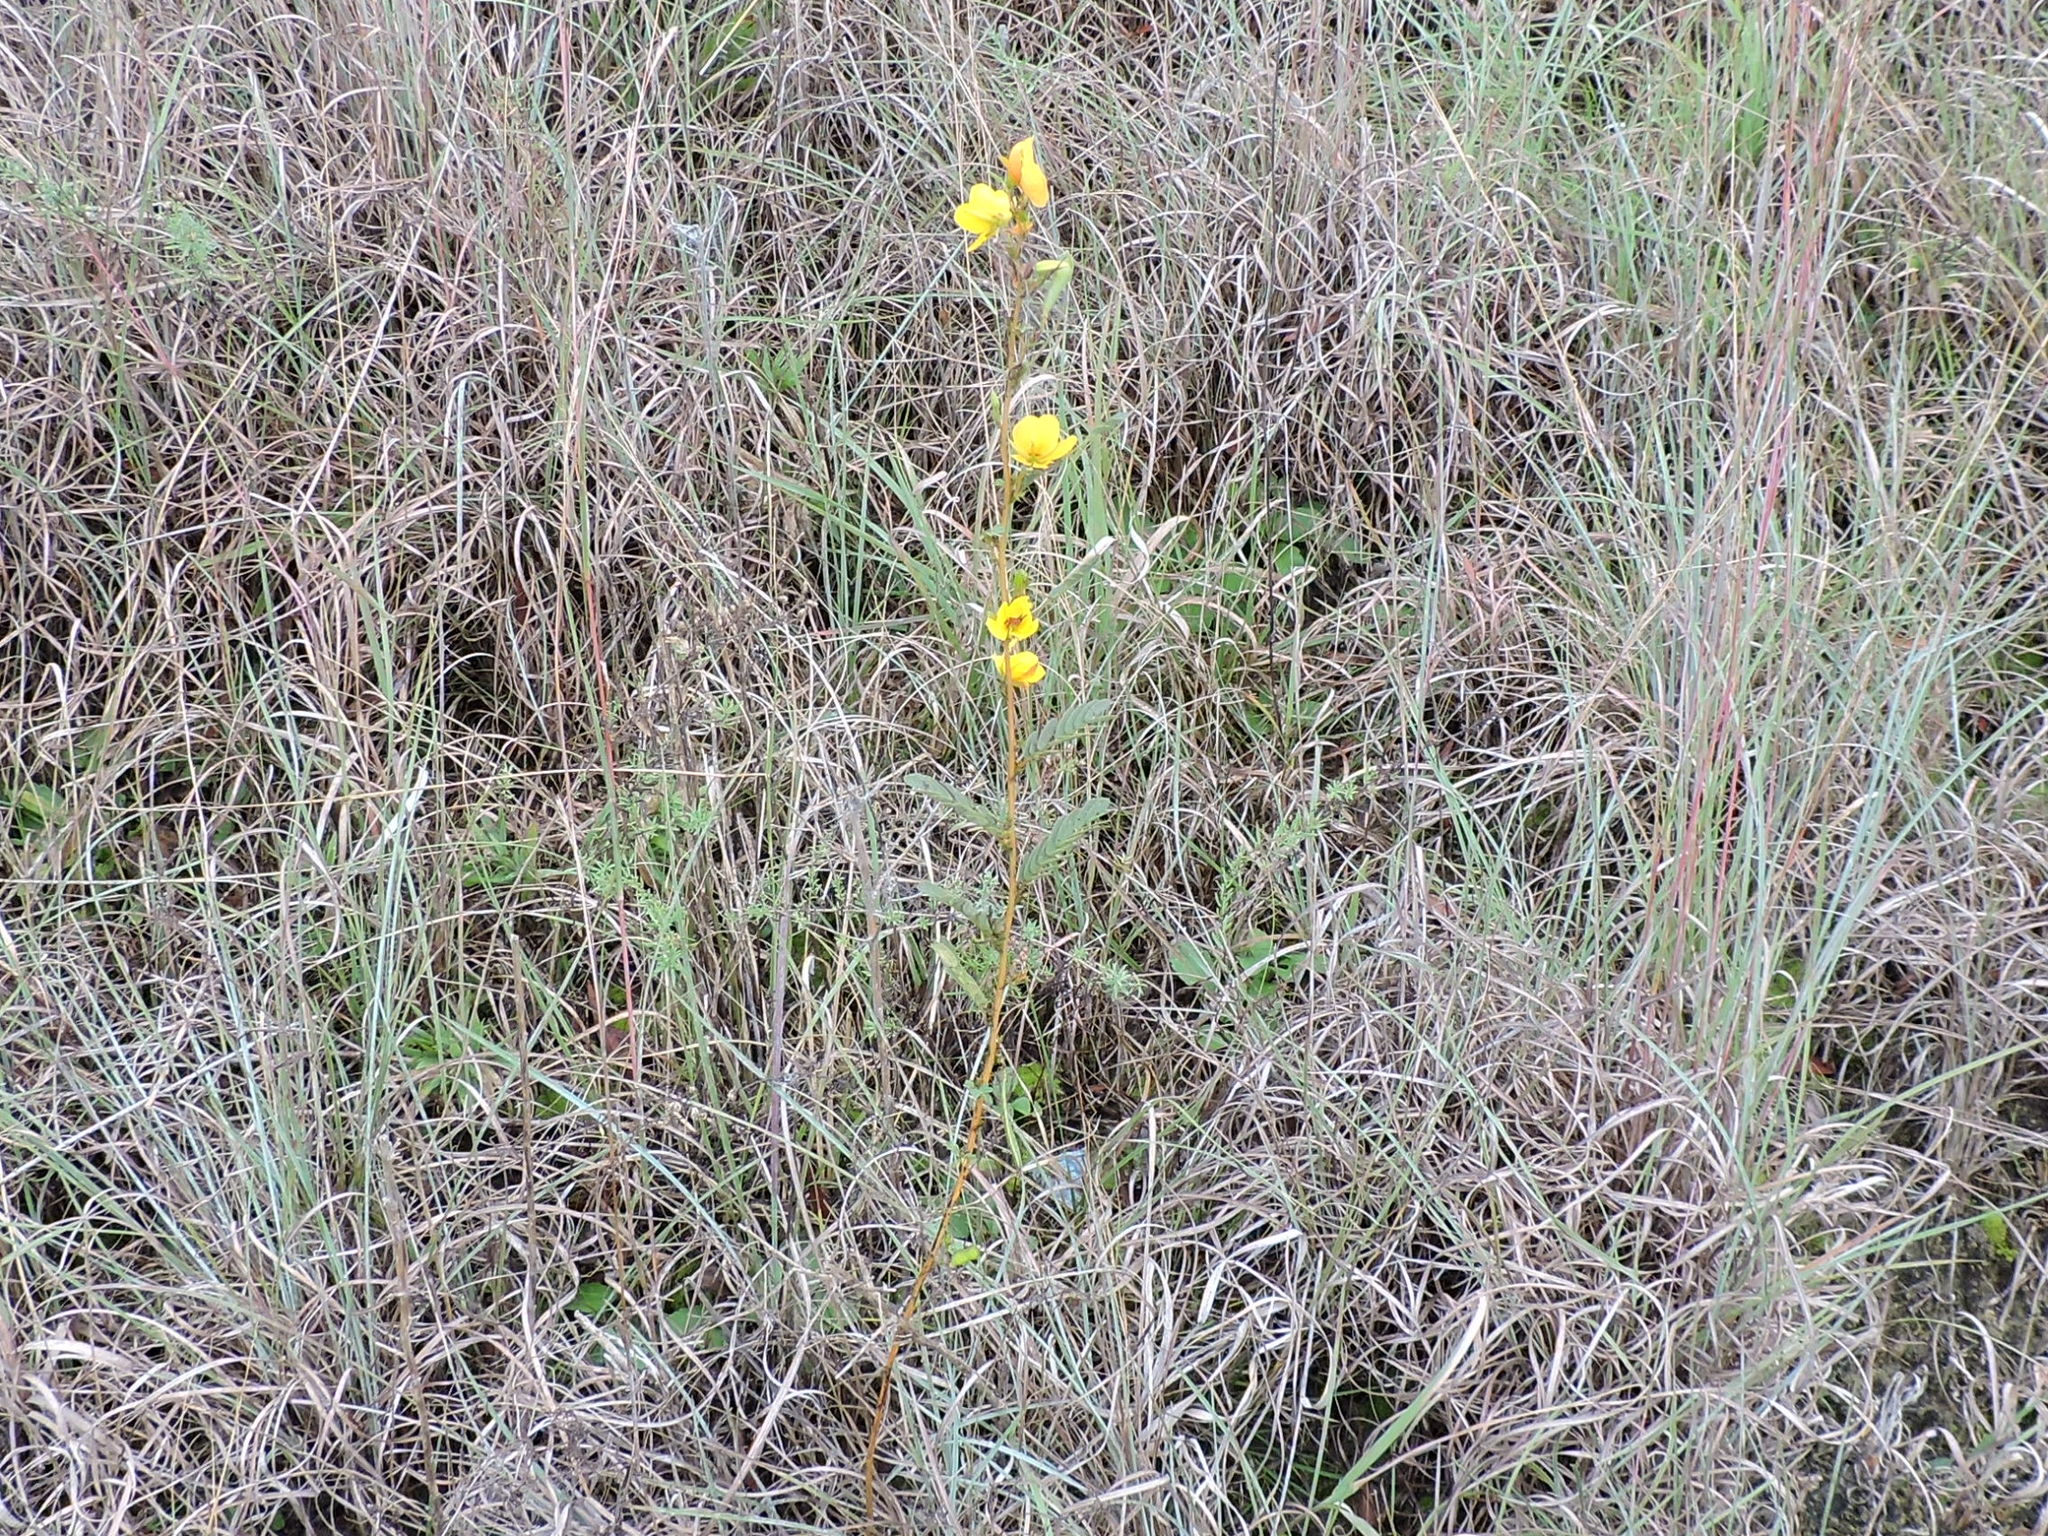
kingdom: Plantae
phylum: Tracheophyta
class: Magnoliopsida
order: Fabales
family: Fabaceae
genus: Chamaecrista
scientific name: Chamaecrista fasciculata
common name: Golden cassia
